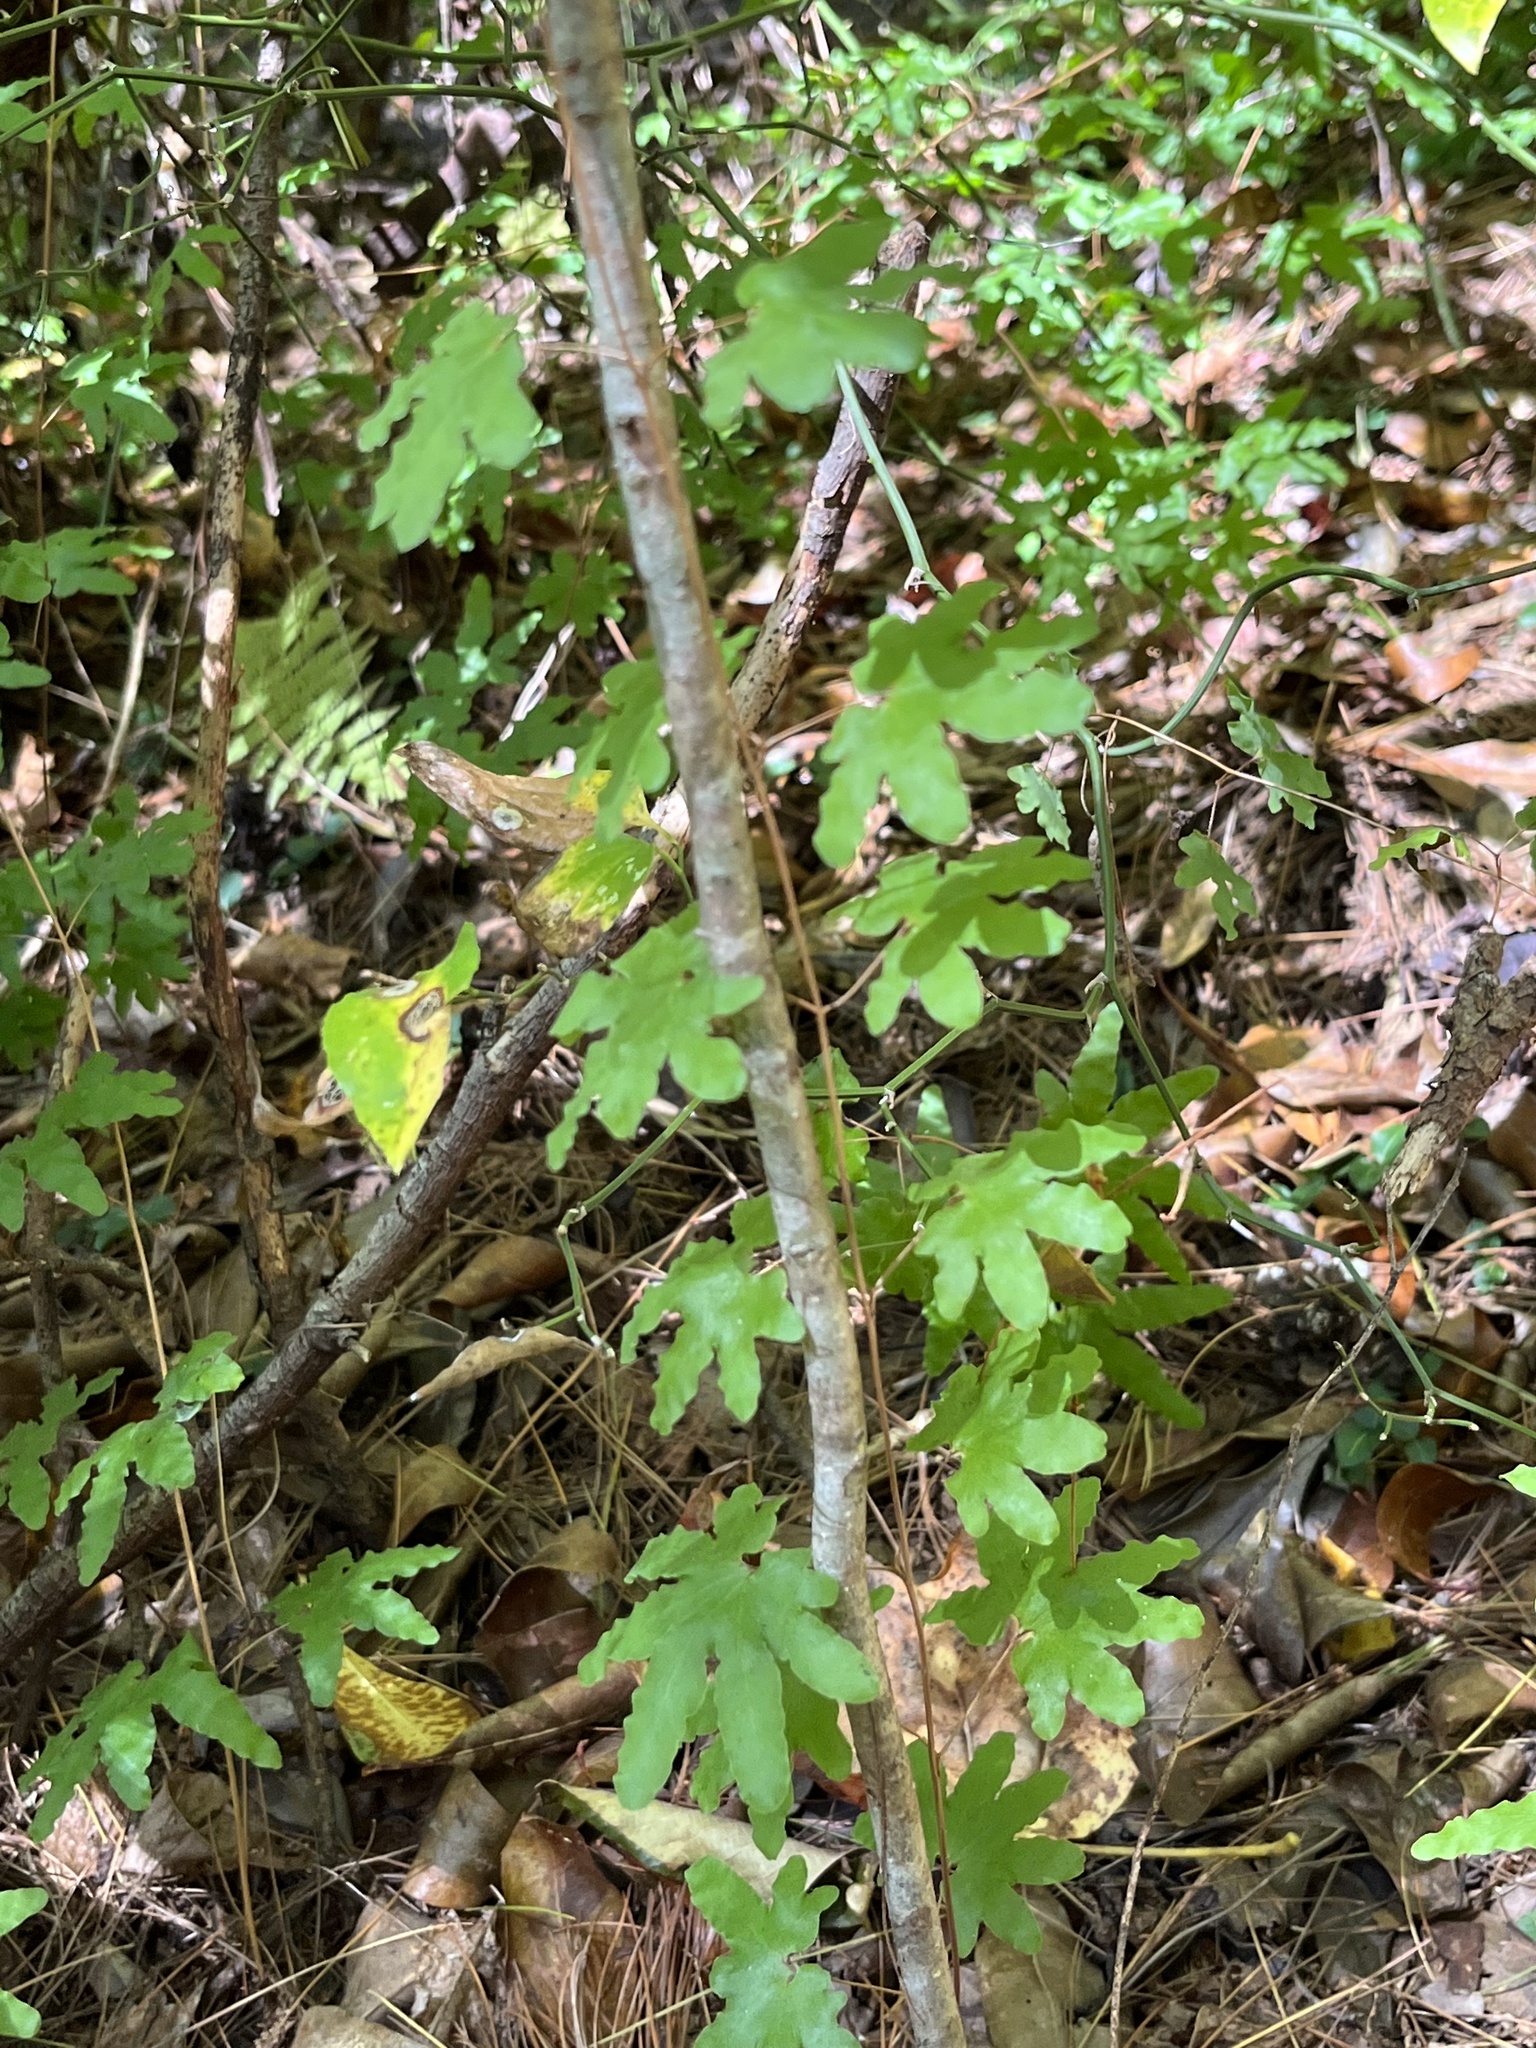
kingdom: Plantae
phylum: Tracheophyta
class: Polypodiopsida
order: Schizaeales
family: Lygodiaceae
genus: Lygodium
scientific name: Lygodium palmatum
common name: American climbing fern
